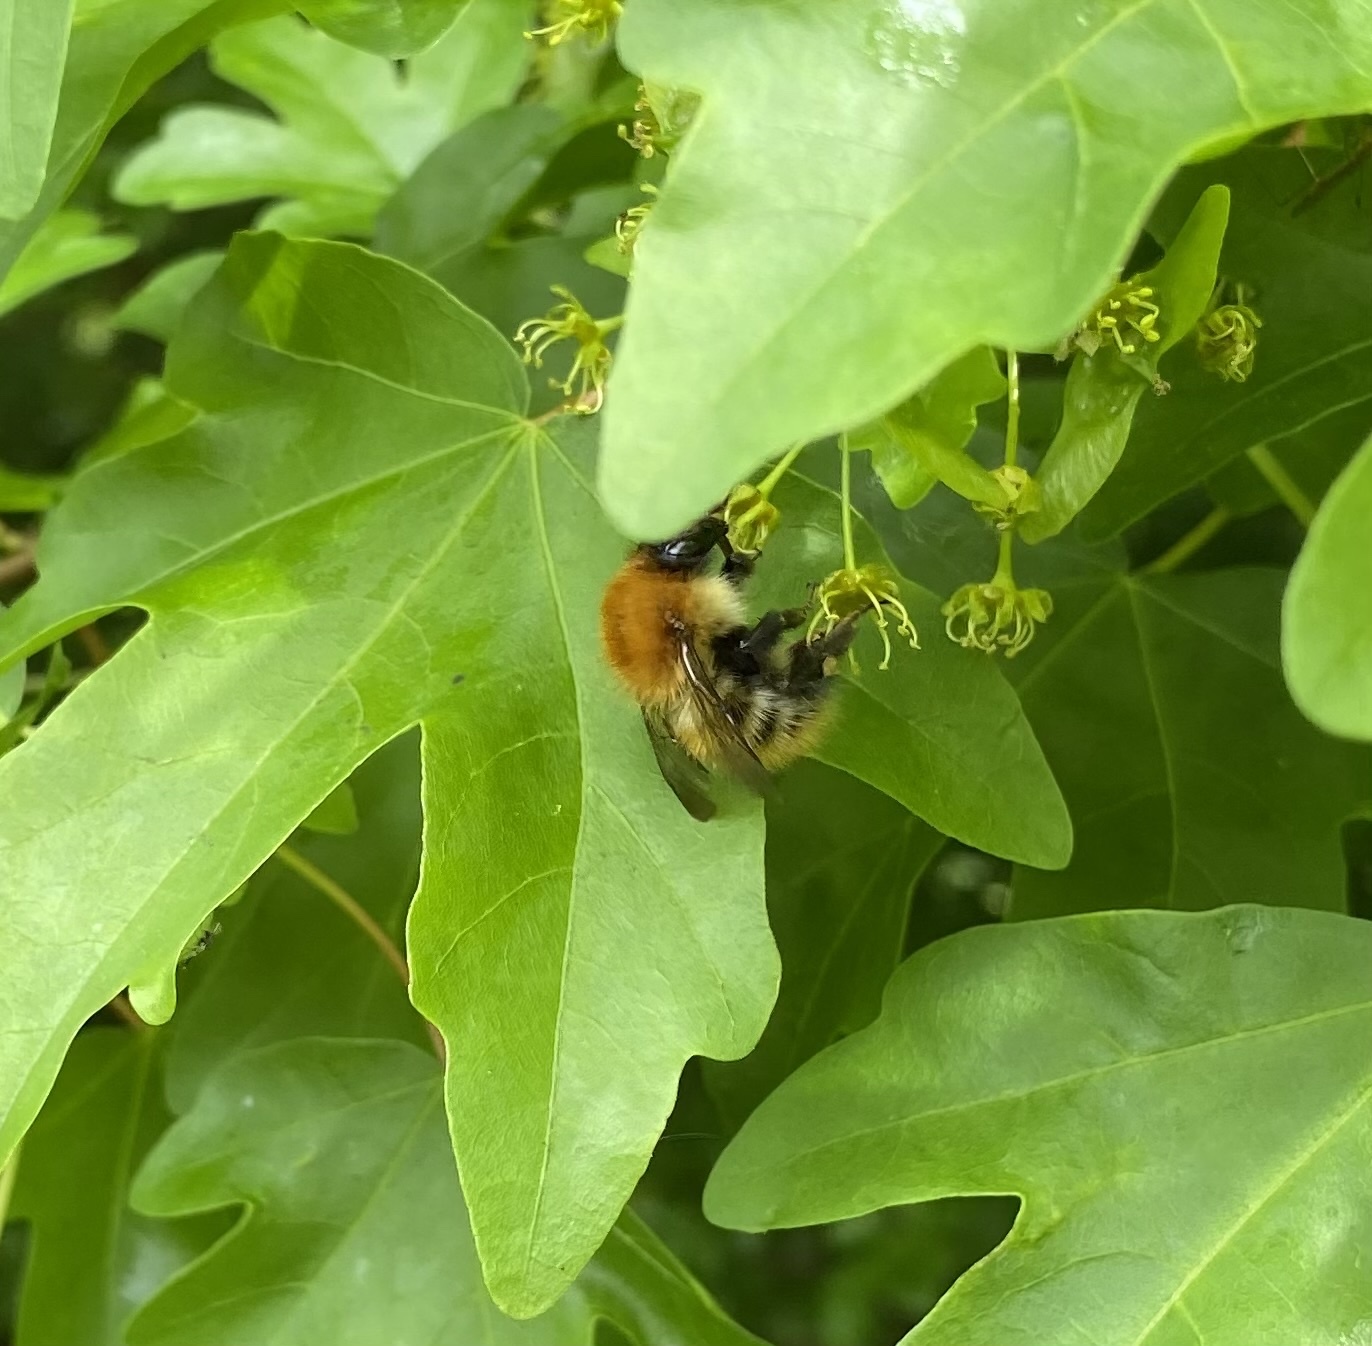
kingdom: Animalia
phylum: Arthropoda
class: Insecta
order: Hymenoptera
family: Apidae
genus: Bombus
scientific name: Bombus pascuorum
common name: Common carder bee
